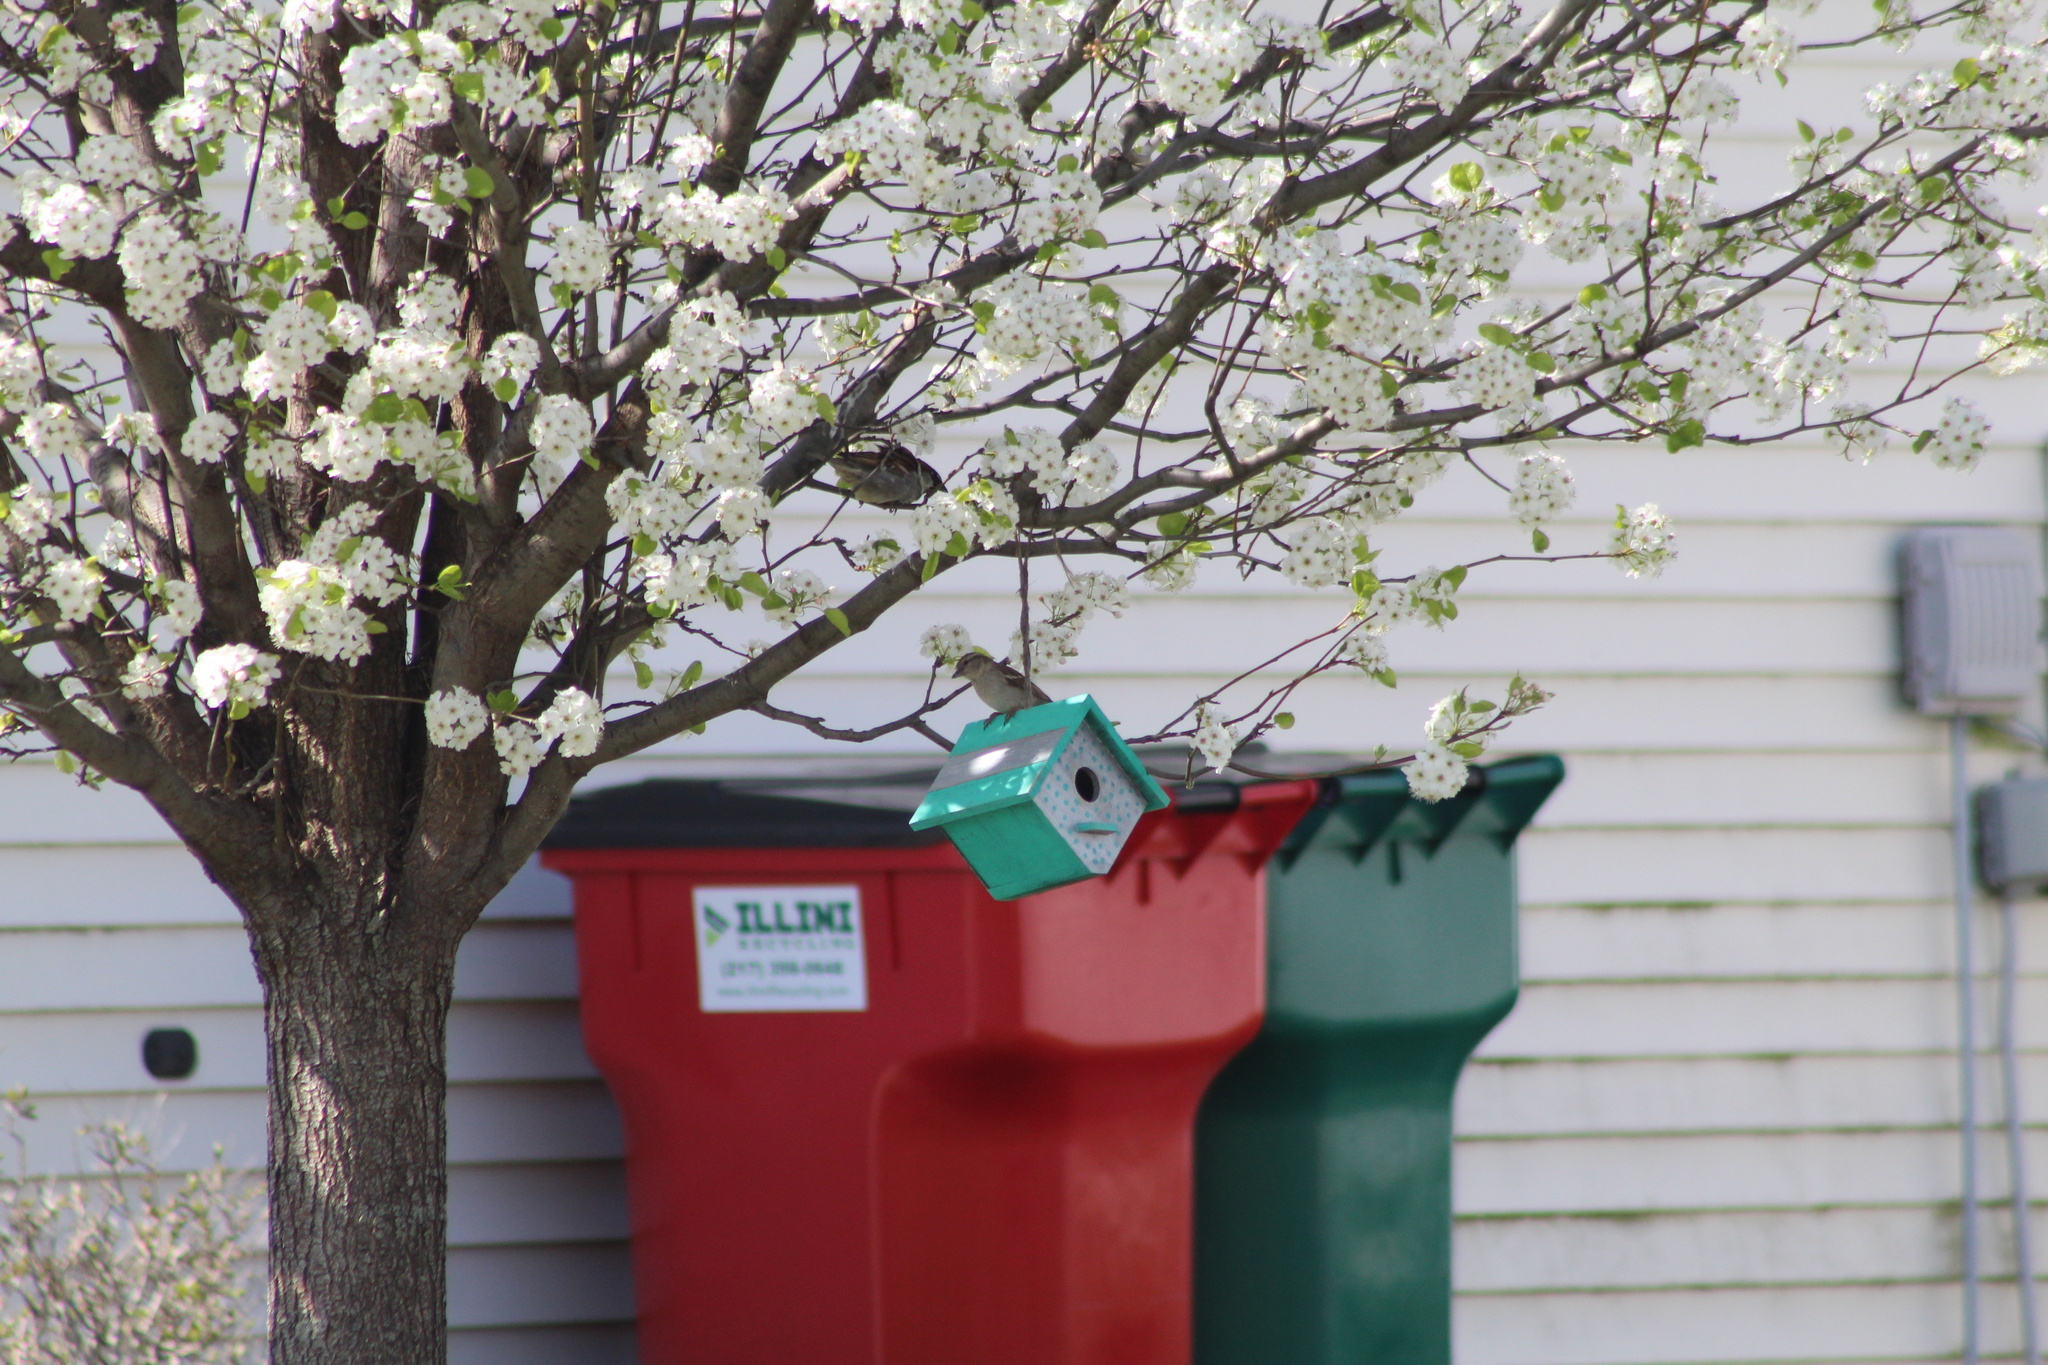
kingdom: Animalia
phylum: Chordata
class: Aves
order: Passeriformes
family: Passeridae
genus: Passer
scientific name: Passer domesticus
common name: House sparrow
